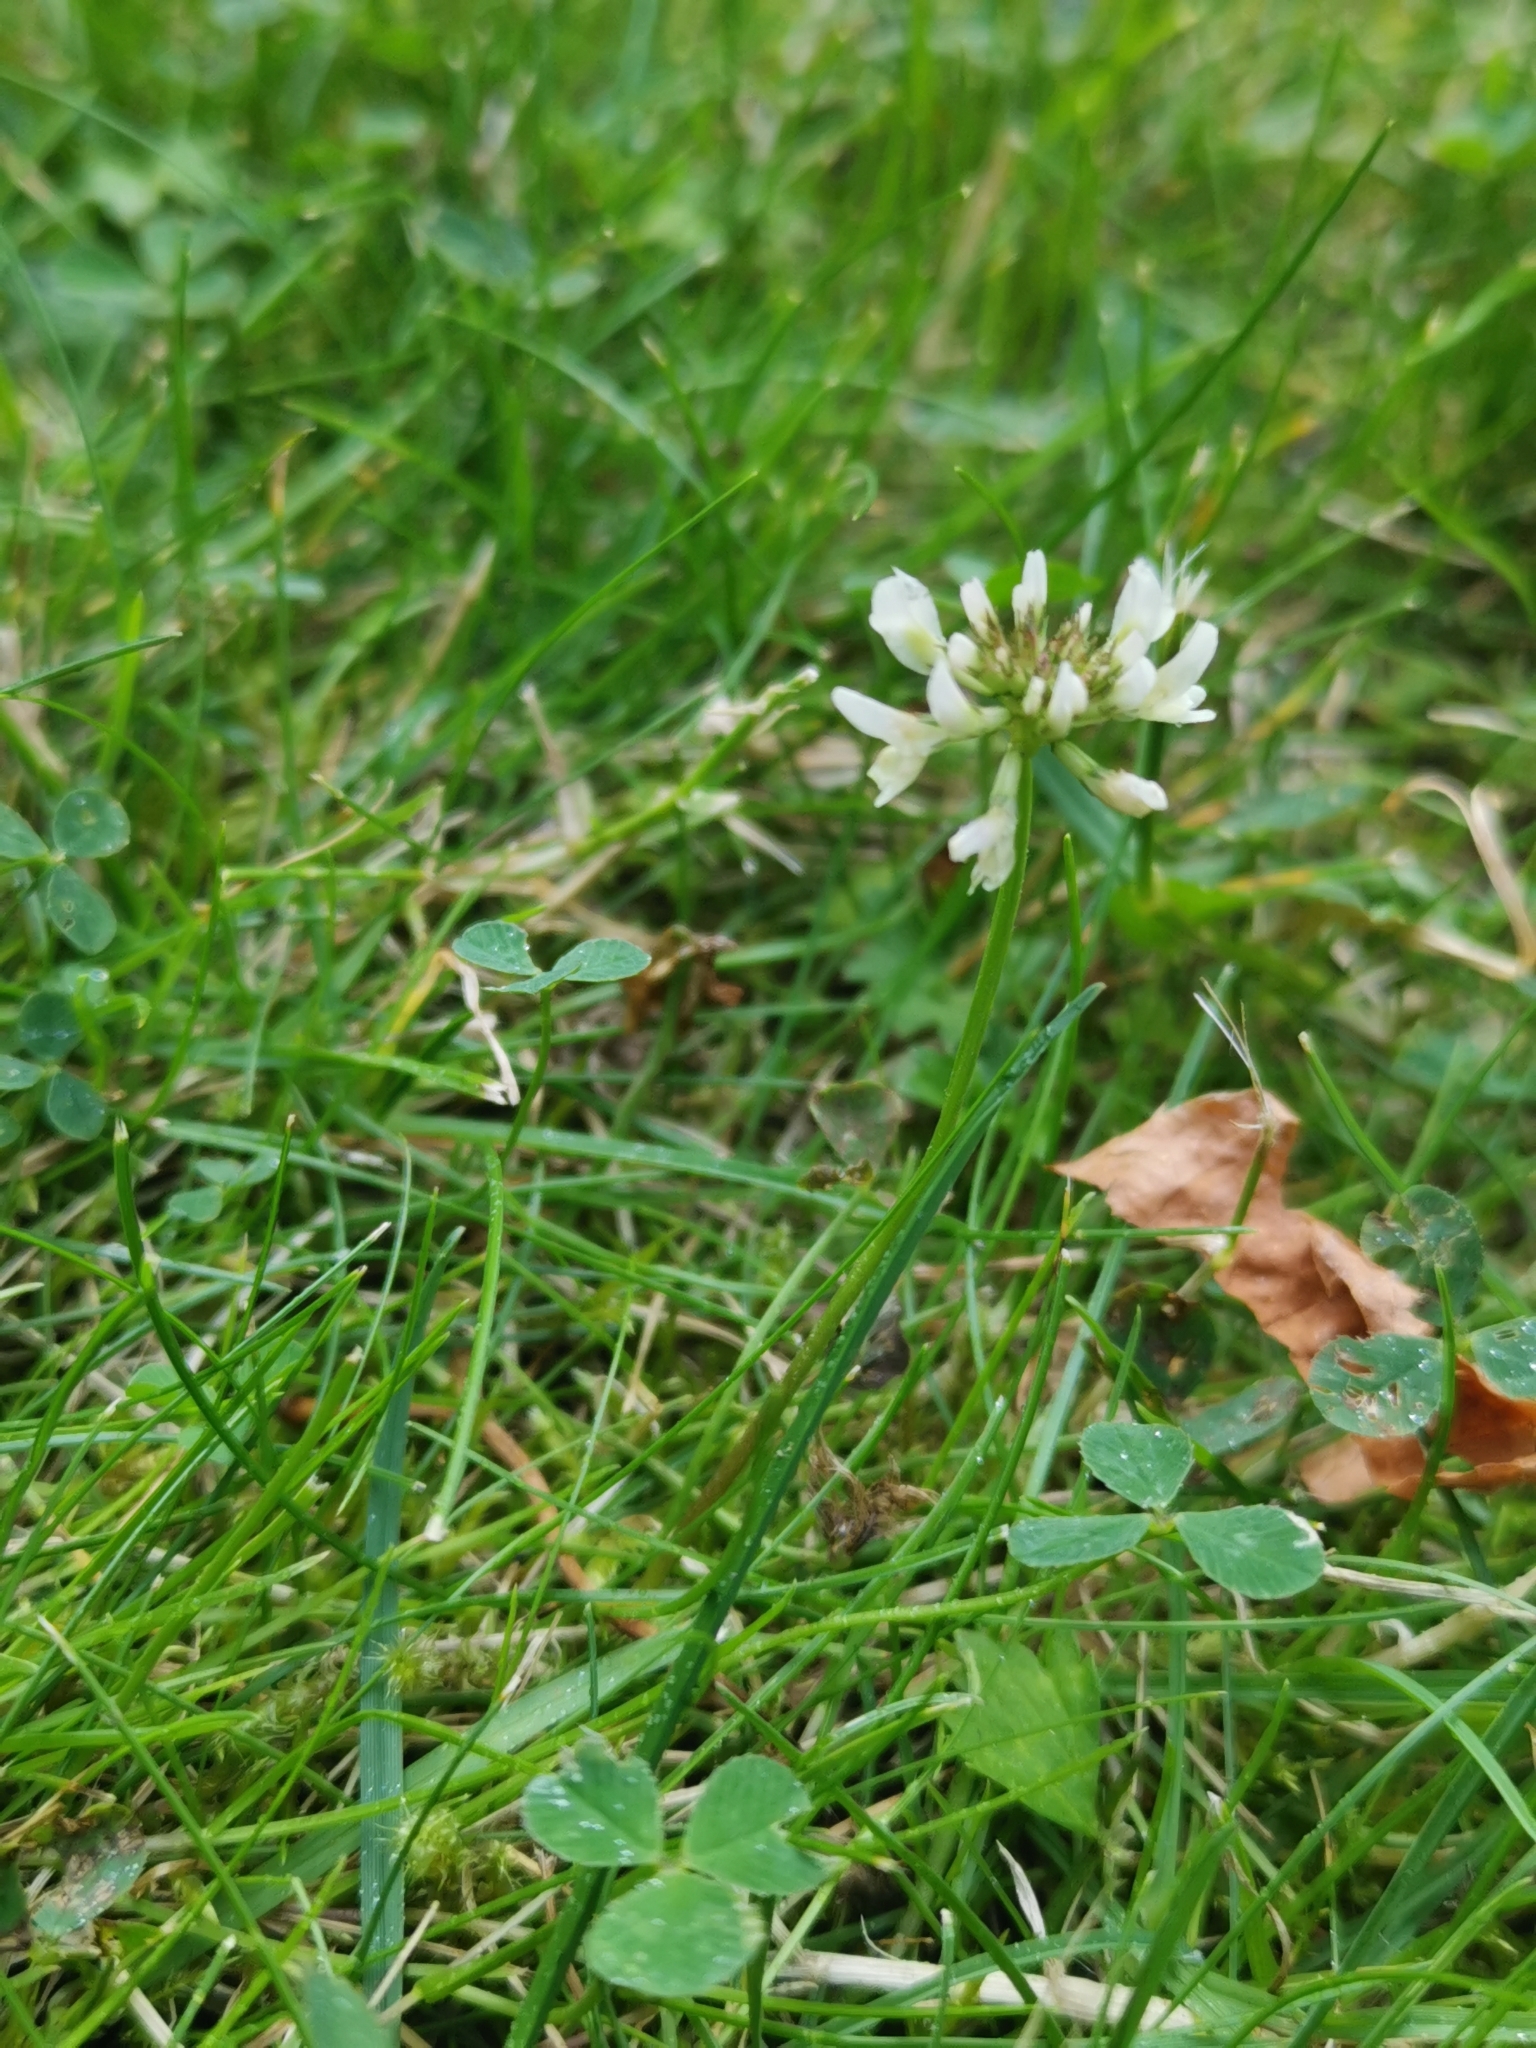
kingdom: Plantae
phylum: Tracheophyta
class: Magnoliopsida
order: Fabales
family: Fabaceae
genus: Trifolium
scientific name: Trifolium repens
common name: White clover
